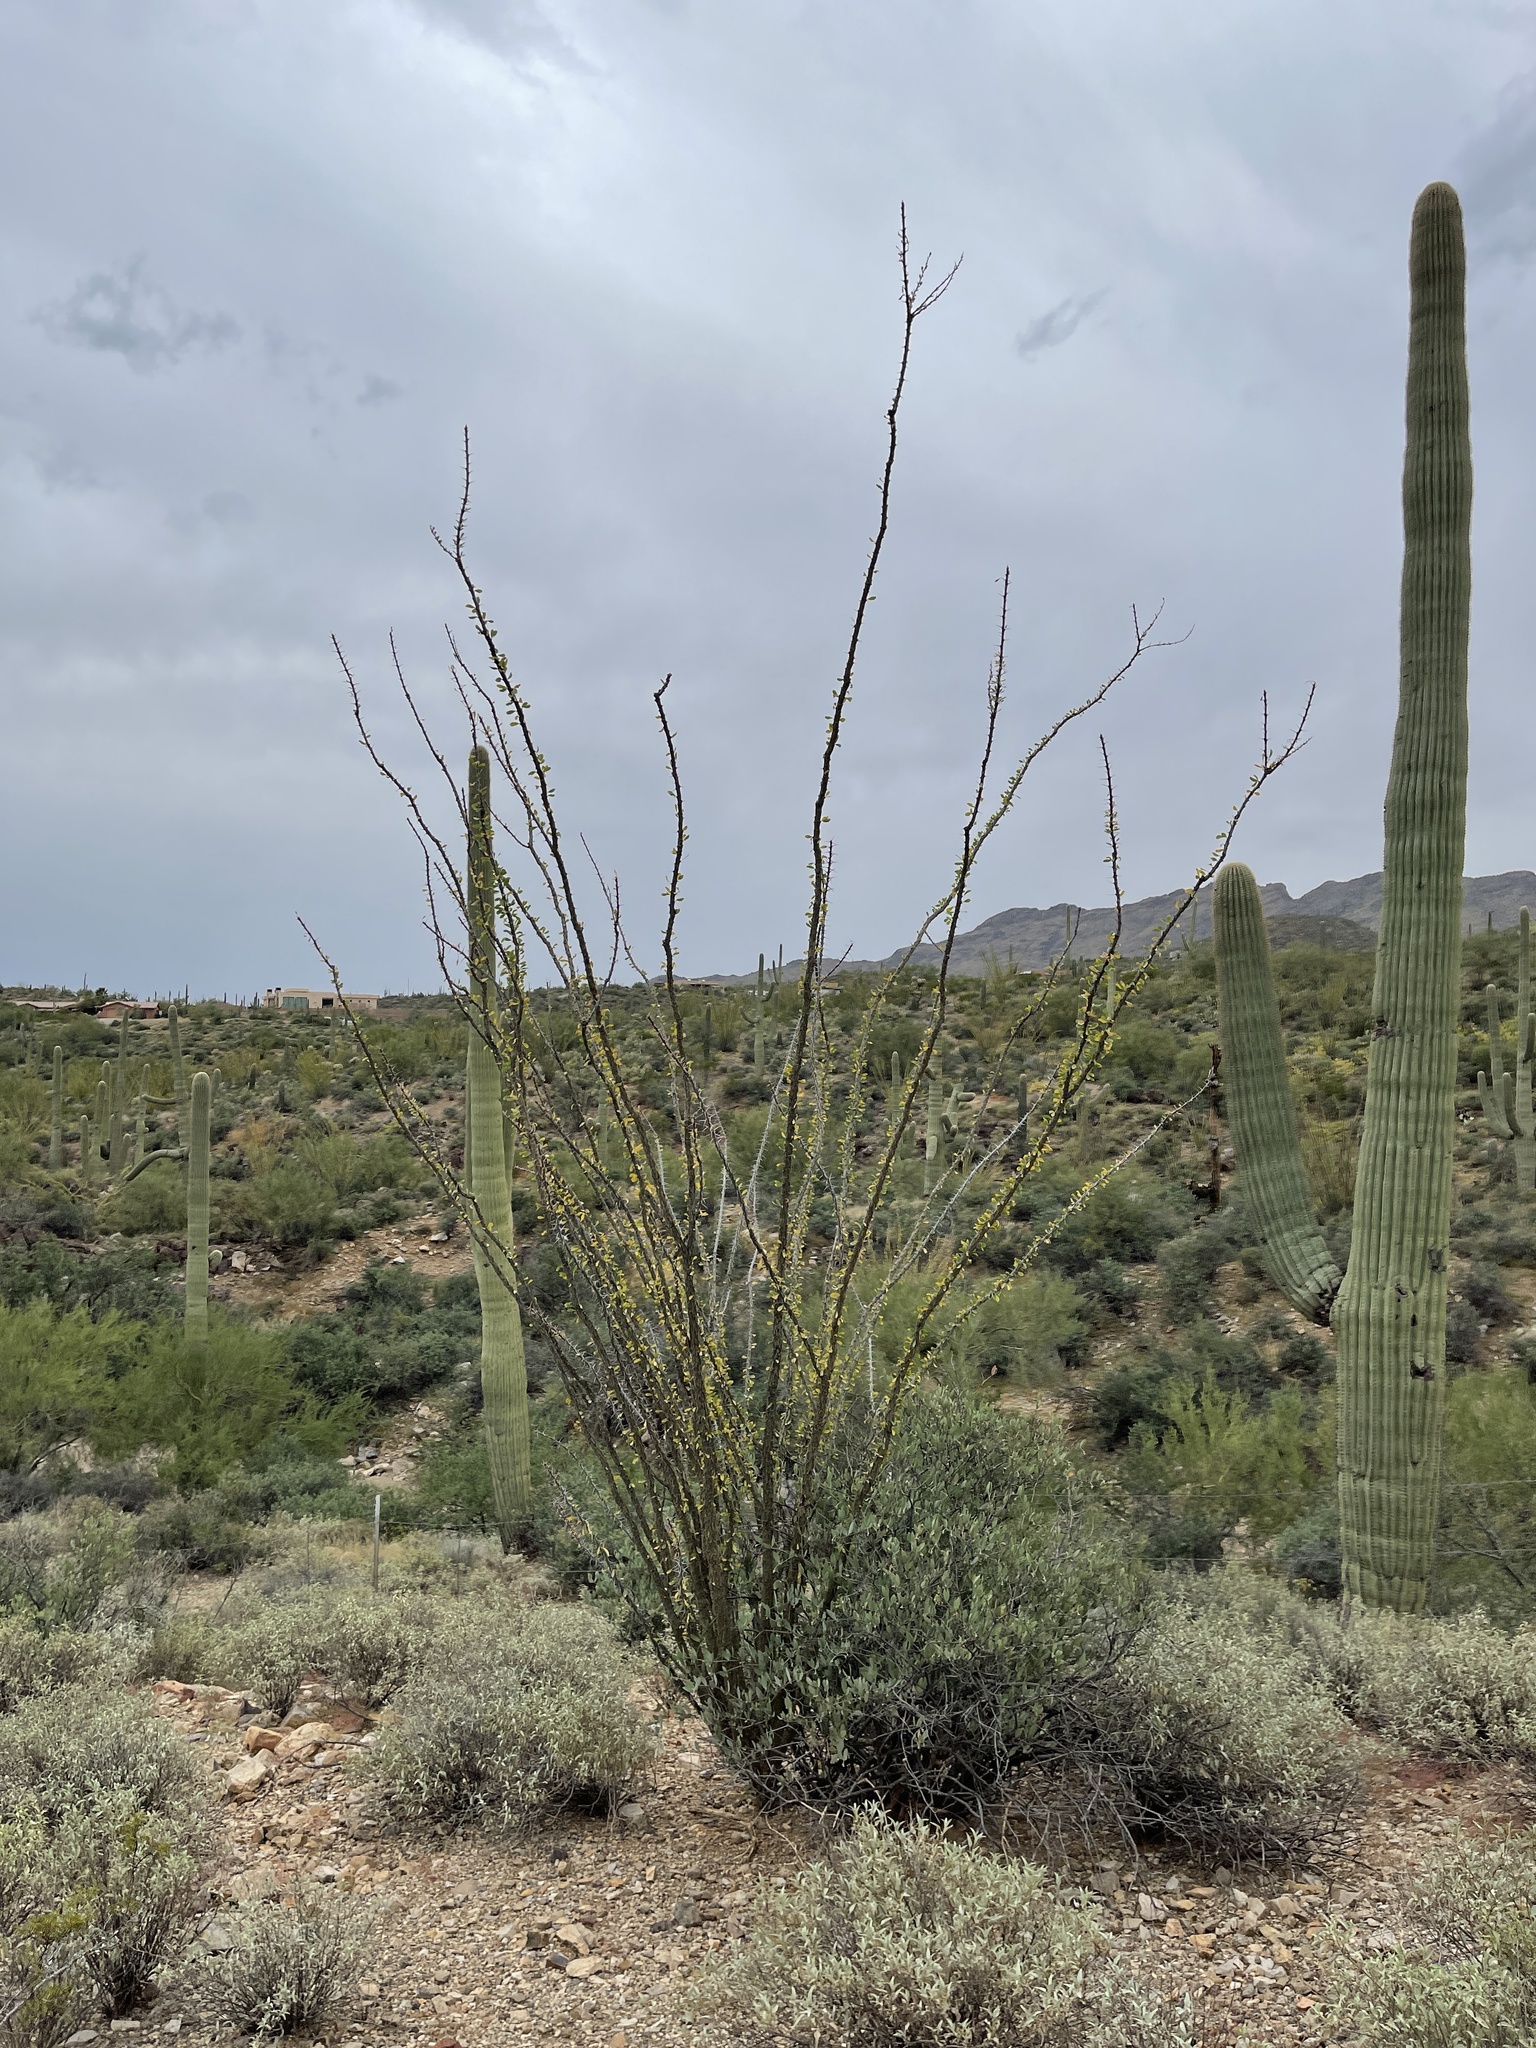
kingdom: Plantae
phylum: Tracheophyta
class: Magnoliopsida
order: Ericales
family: Fouquieriaceae
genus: Fouquieria
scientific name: Fouquieria splendens
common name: Vine-cactus
